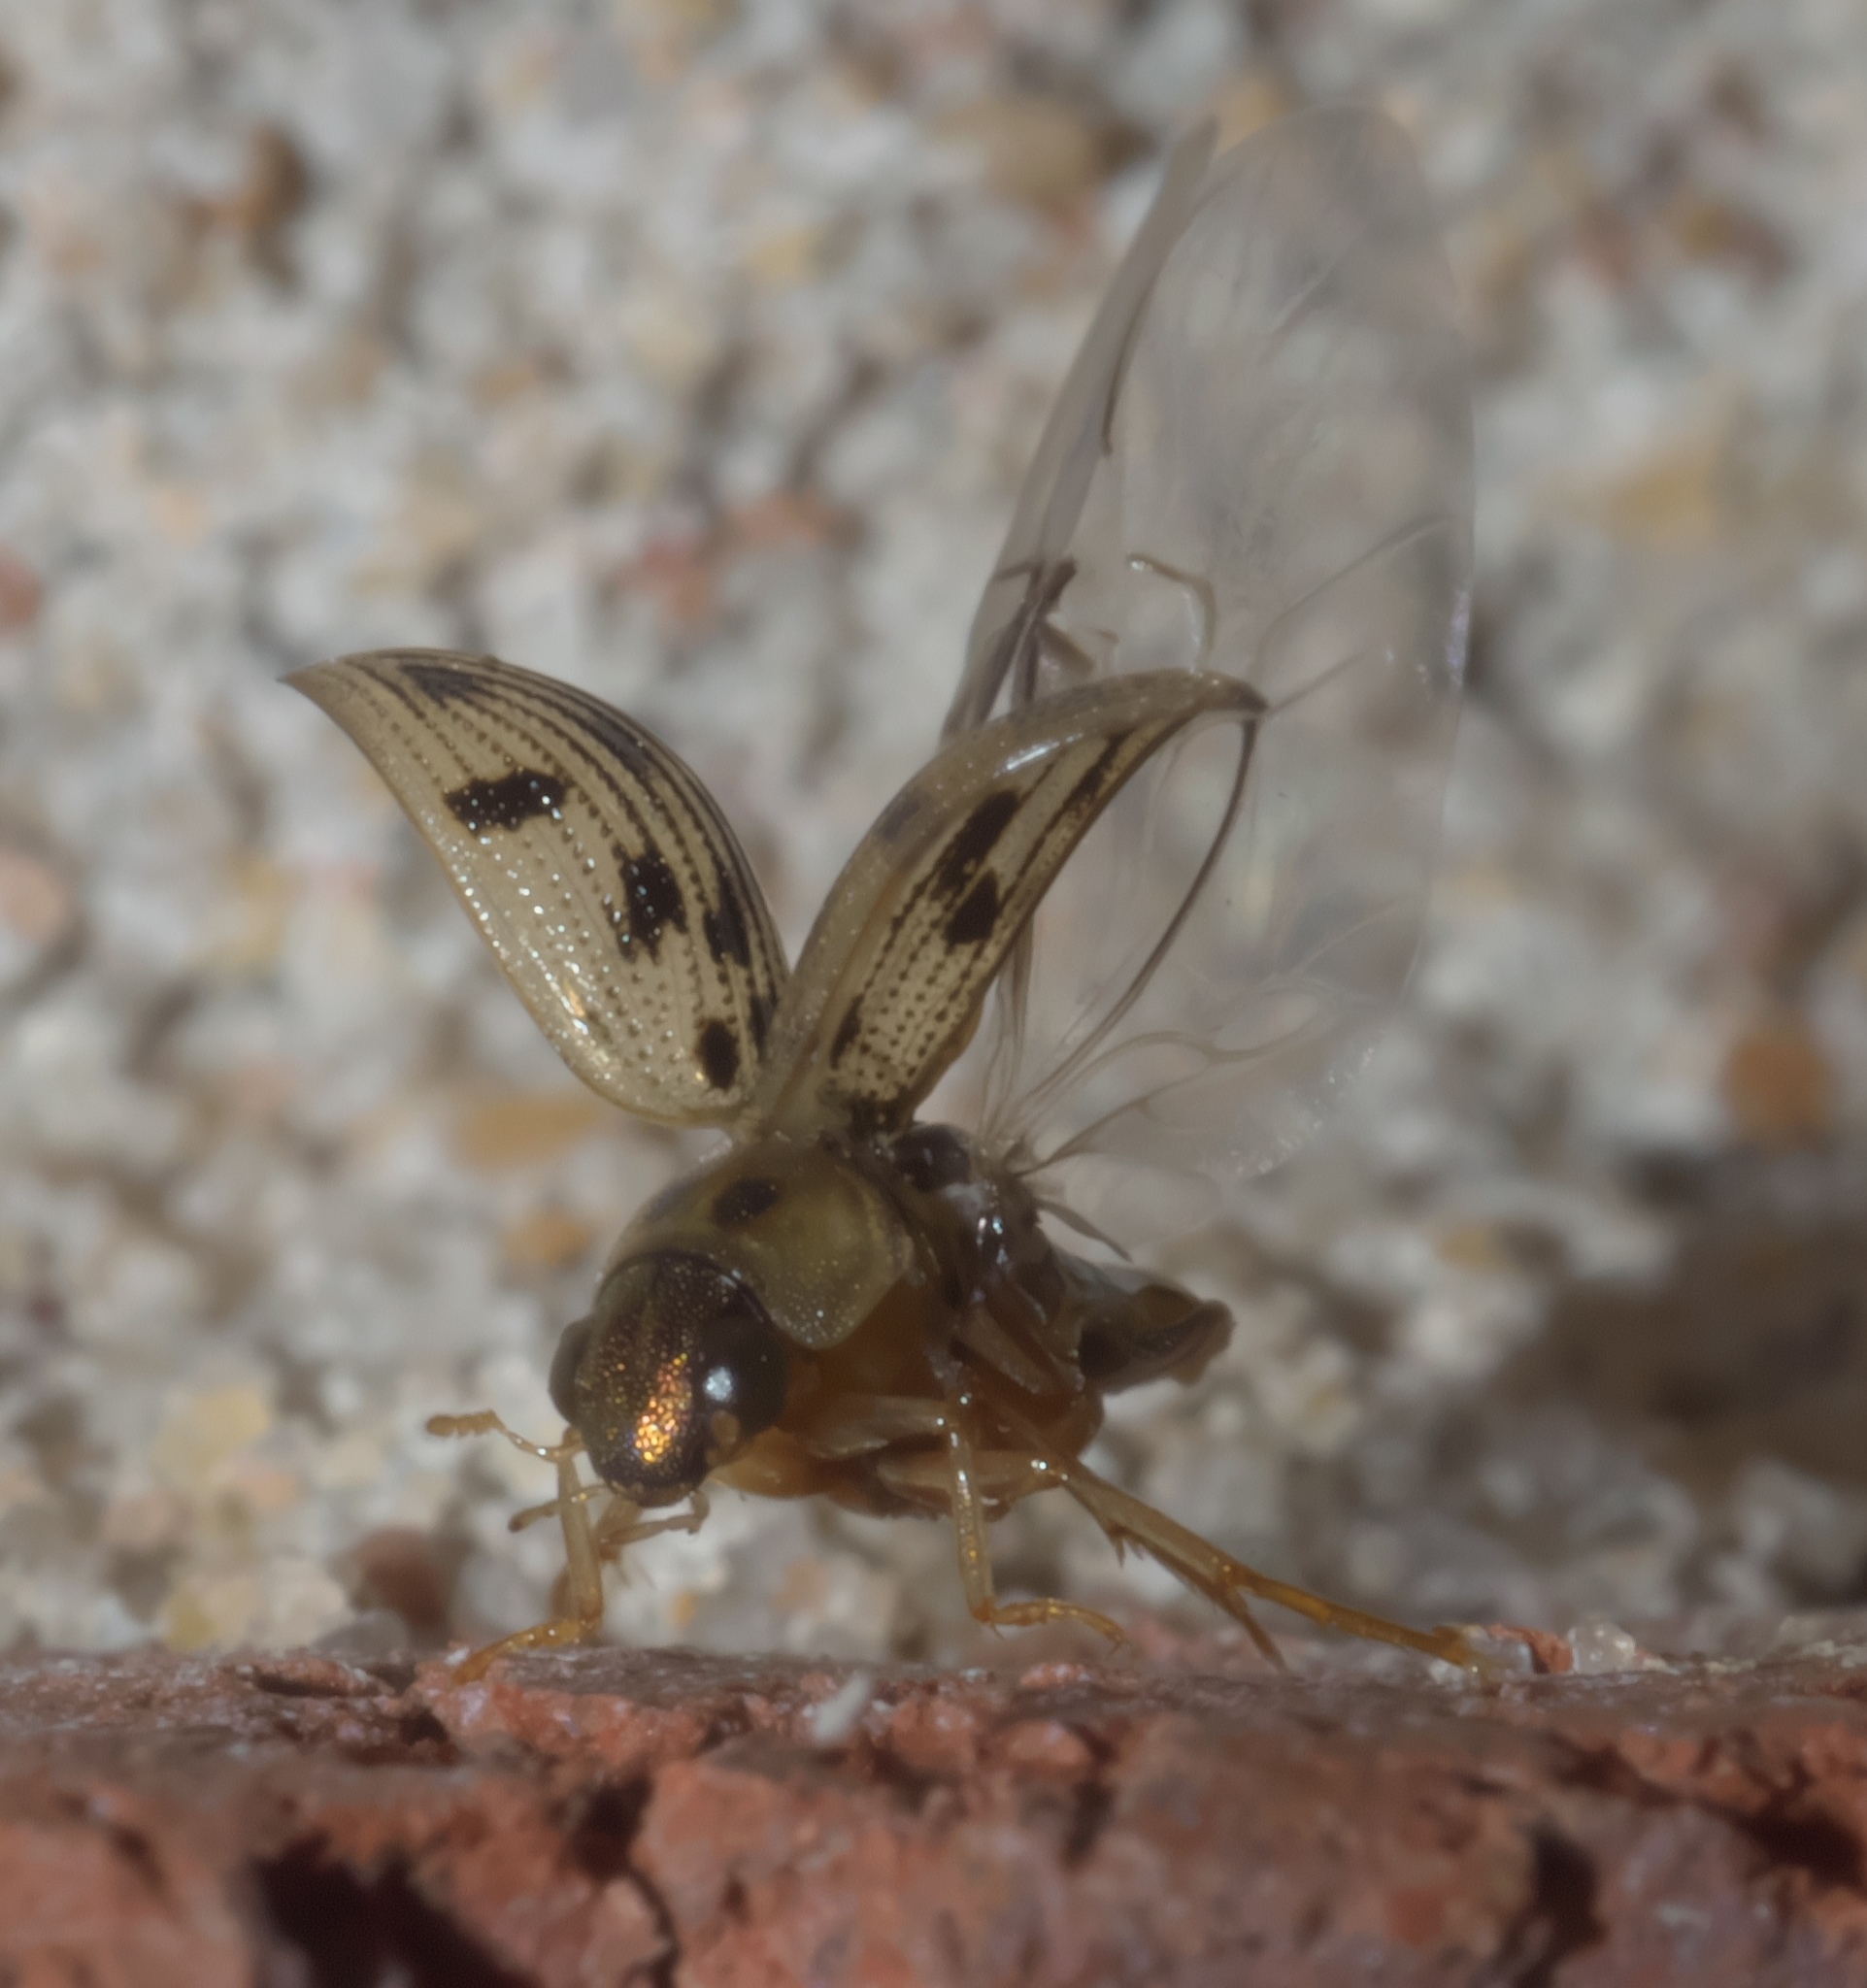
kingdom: Animalia
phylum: Arthropoda
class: Insecta
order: Coleoptera
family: Hydrophilidae
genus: Berosus
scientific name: Berosus pantherinus
